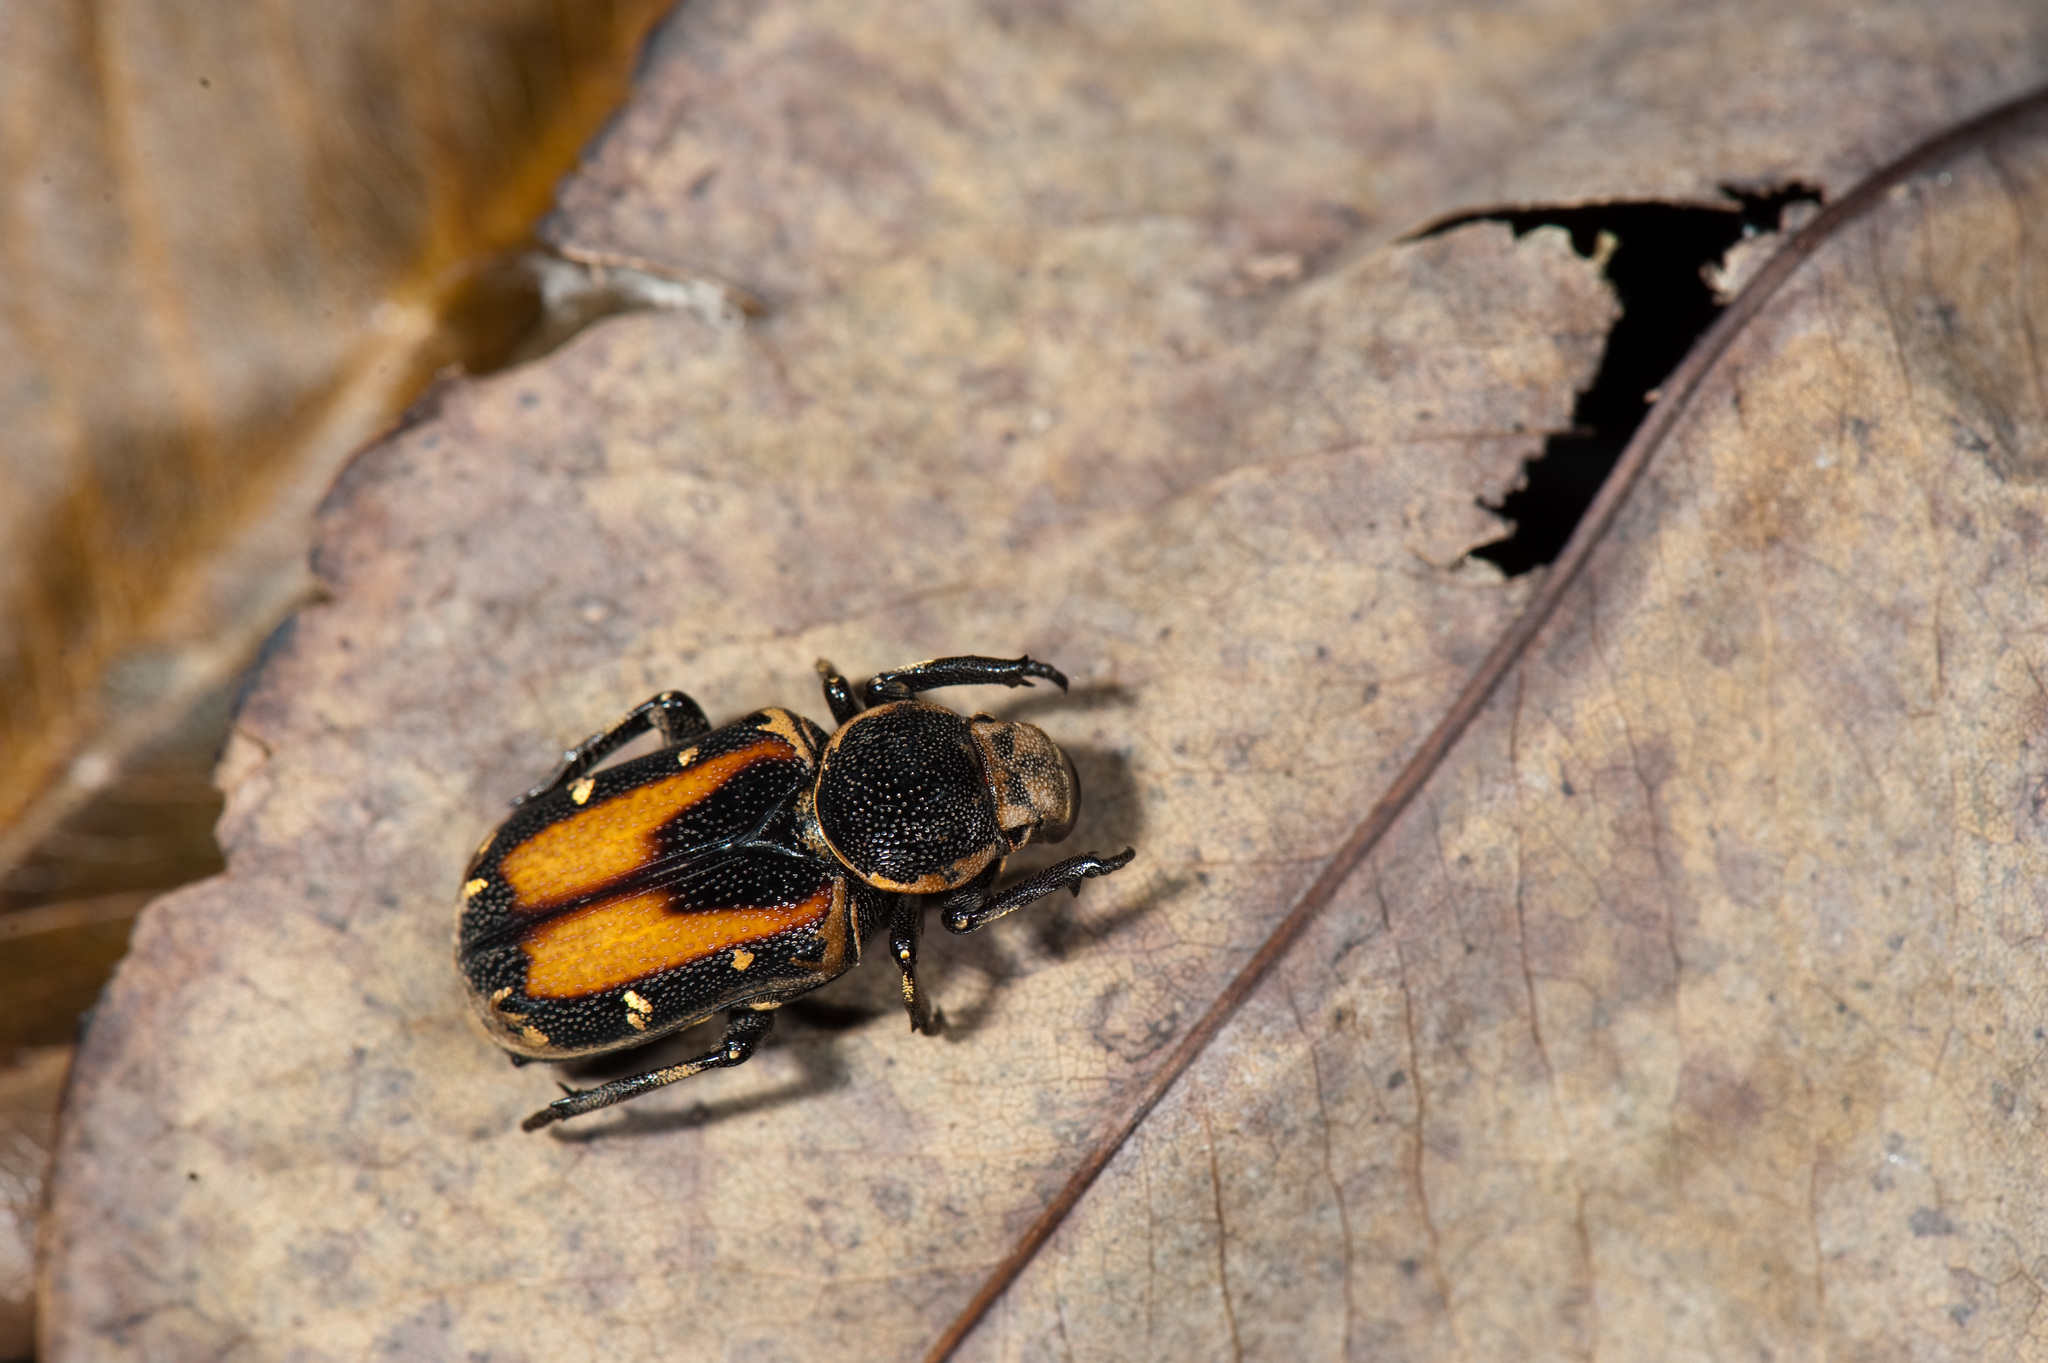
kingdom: Animalia
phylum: Arthropoda
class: Insecta
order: Coleoptera
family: Scarabaeidae
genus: Clinterocera
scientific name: Clinterocera nigra
